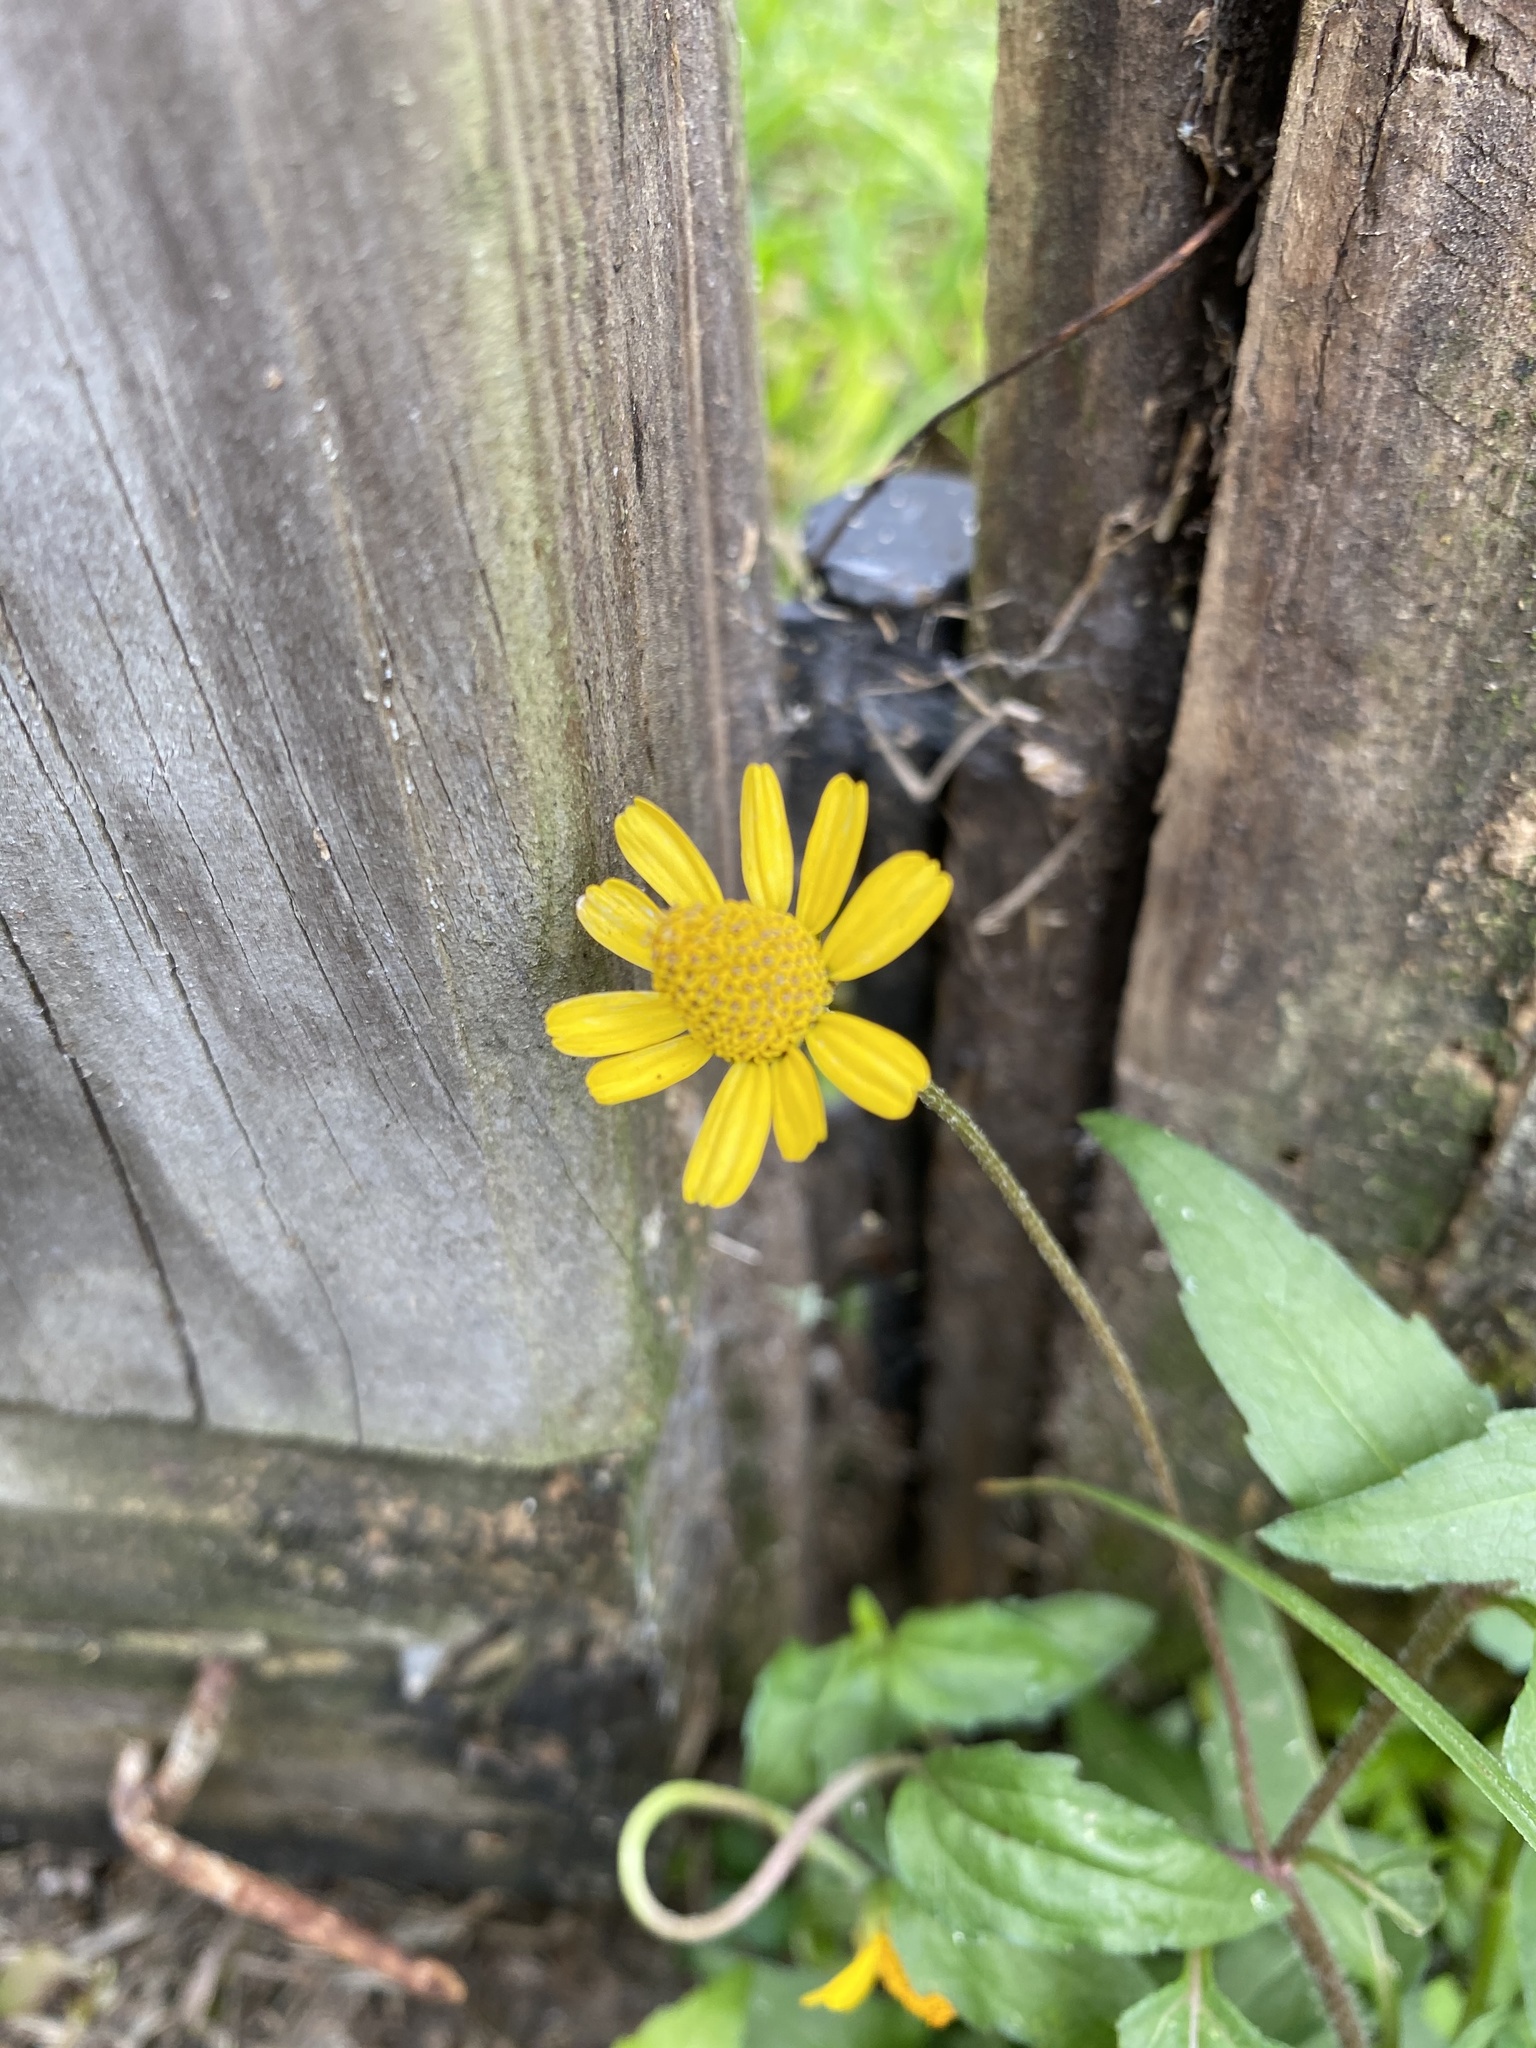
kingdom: Plantae
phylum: Tracheophyta
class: Magnoliopsida
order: Asterales
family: Asteraceae
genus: Acmella
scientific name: Acmella repens
